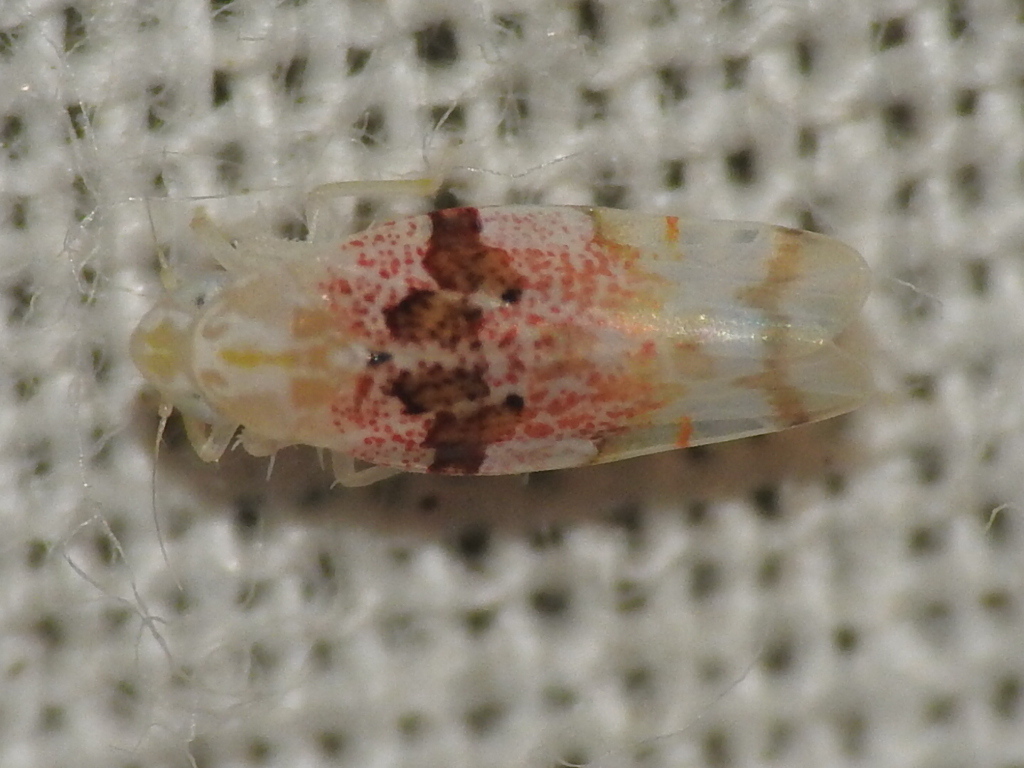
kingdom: Animalia
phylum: Arthropoda
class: Insecta
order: Hemiptera
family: Cicadellidae
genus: Hymetta
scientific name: Hymetta anthisma
